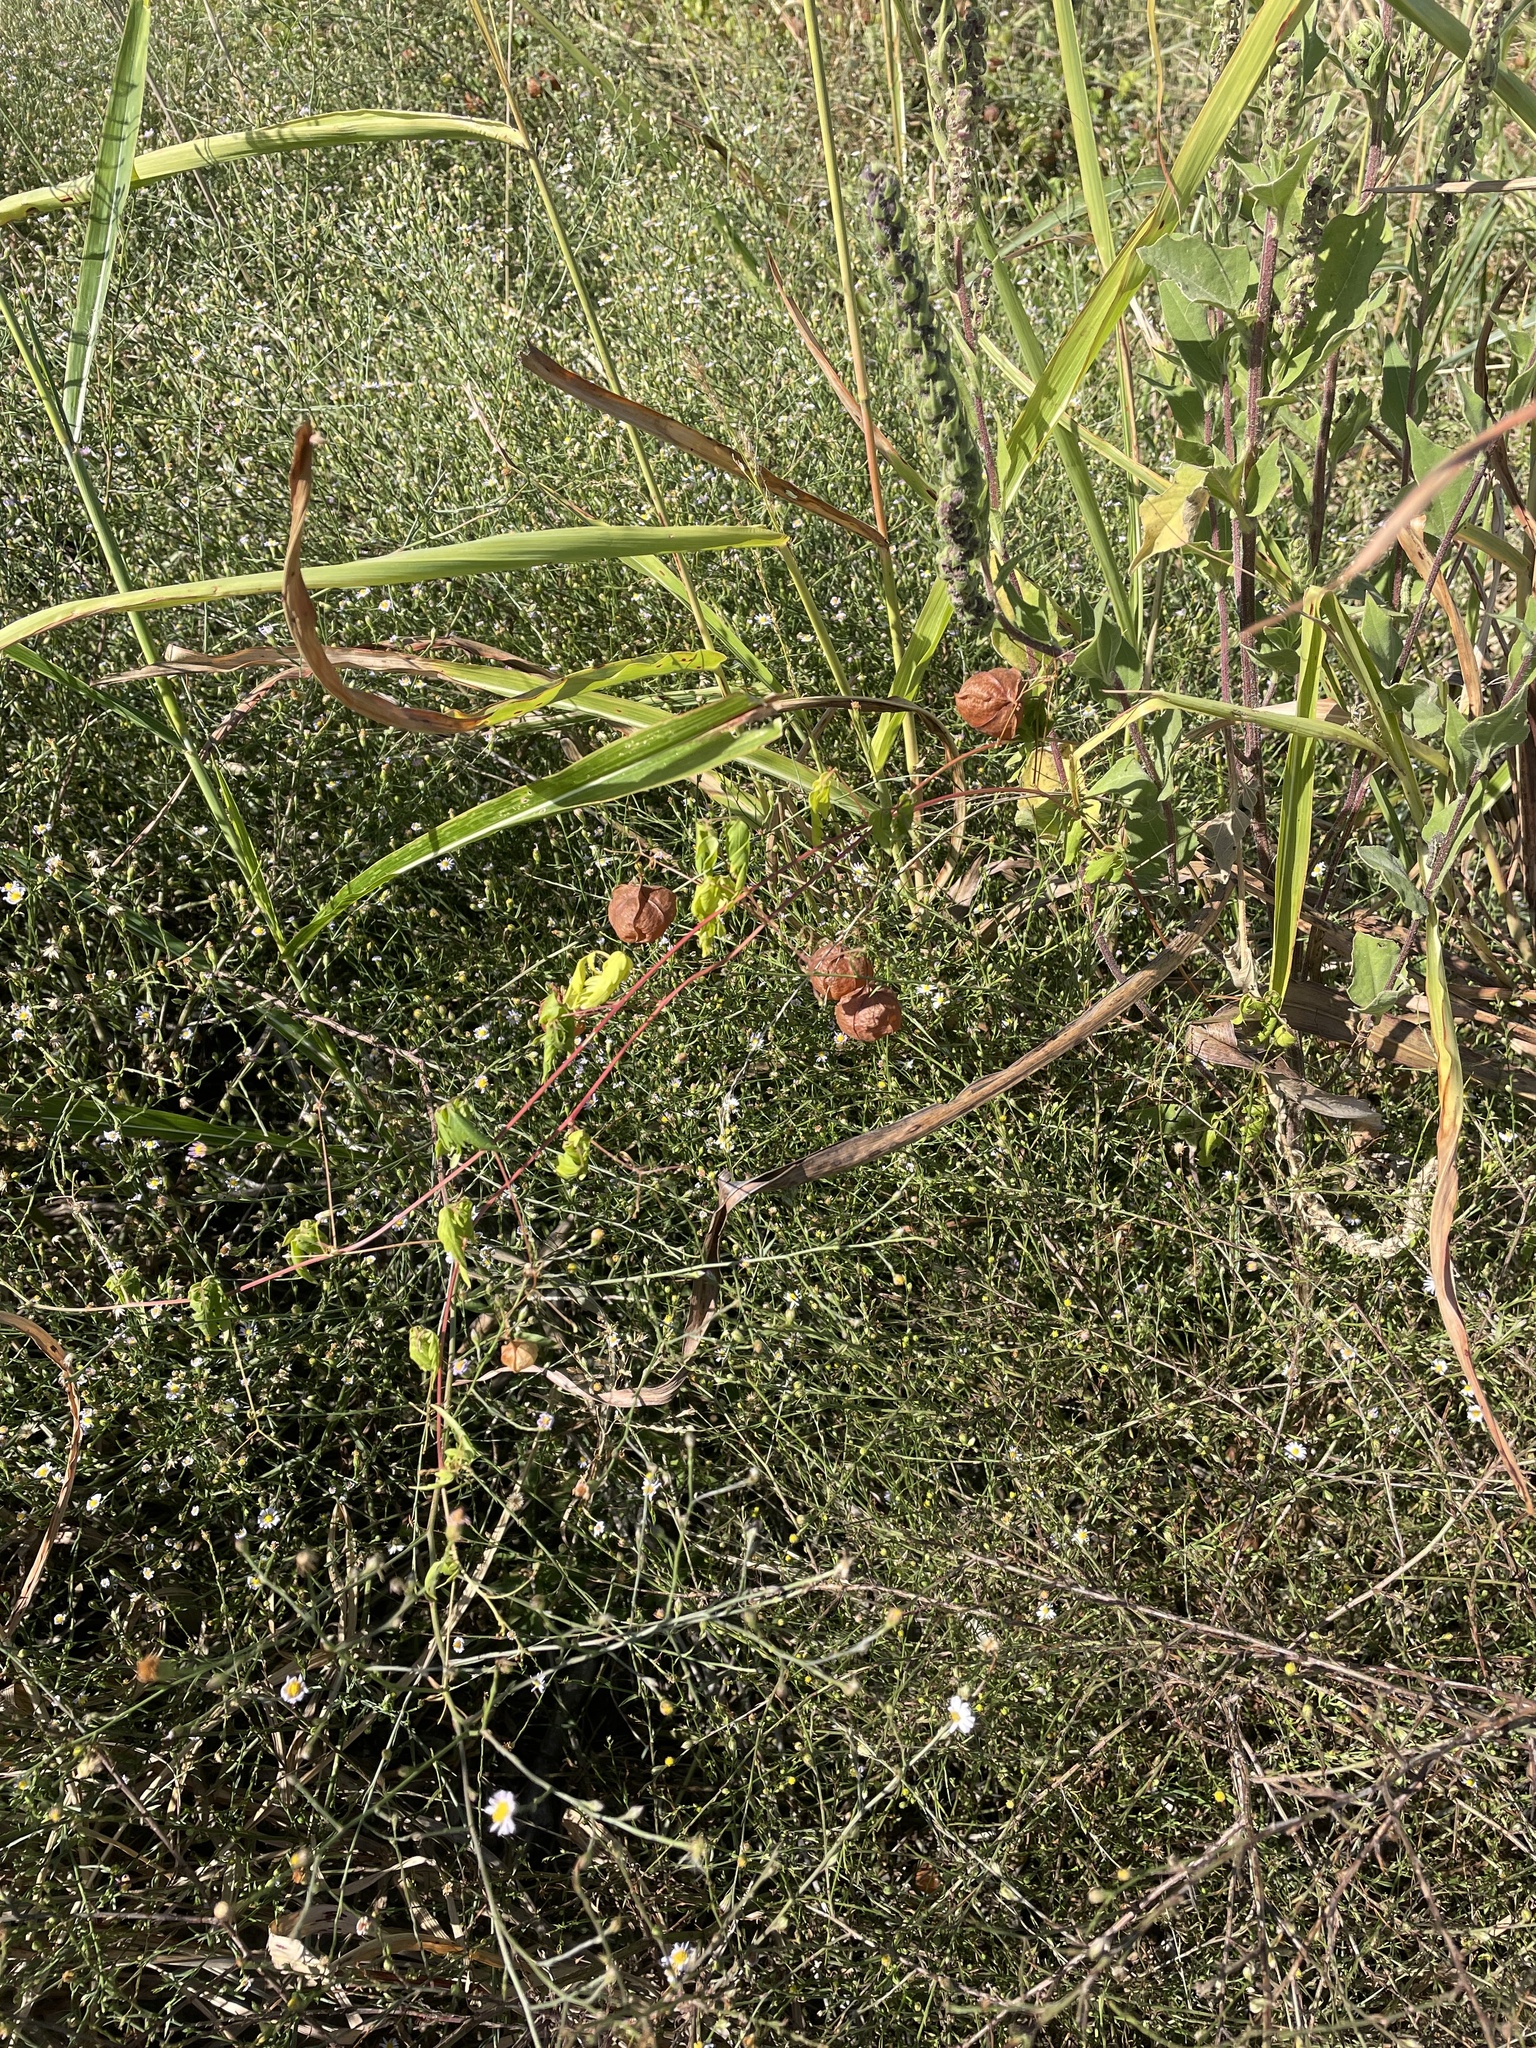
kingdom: Plantae
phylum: Tracheophyta
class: Magnoliopsida
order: Sapindales
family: Sapindaceae
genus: Cardiospermum
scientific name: Cardiospermum halicacabum
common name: Balloon vine
